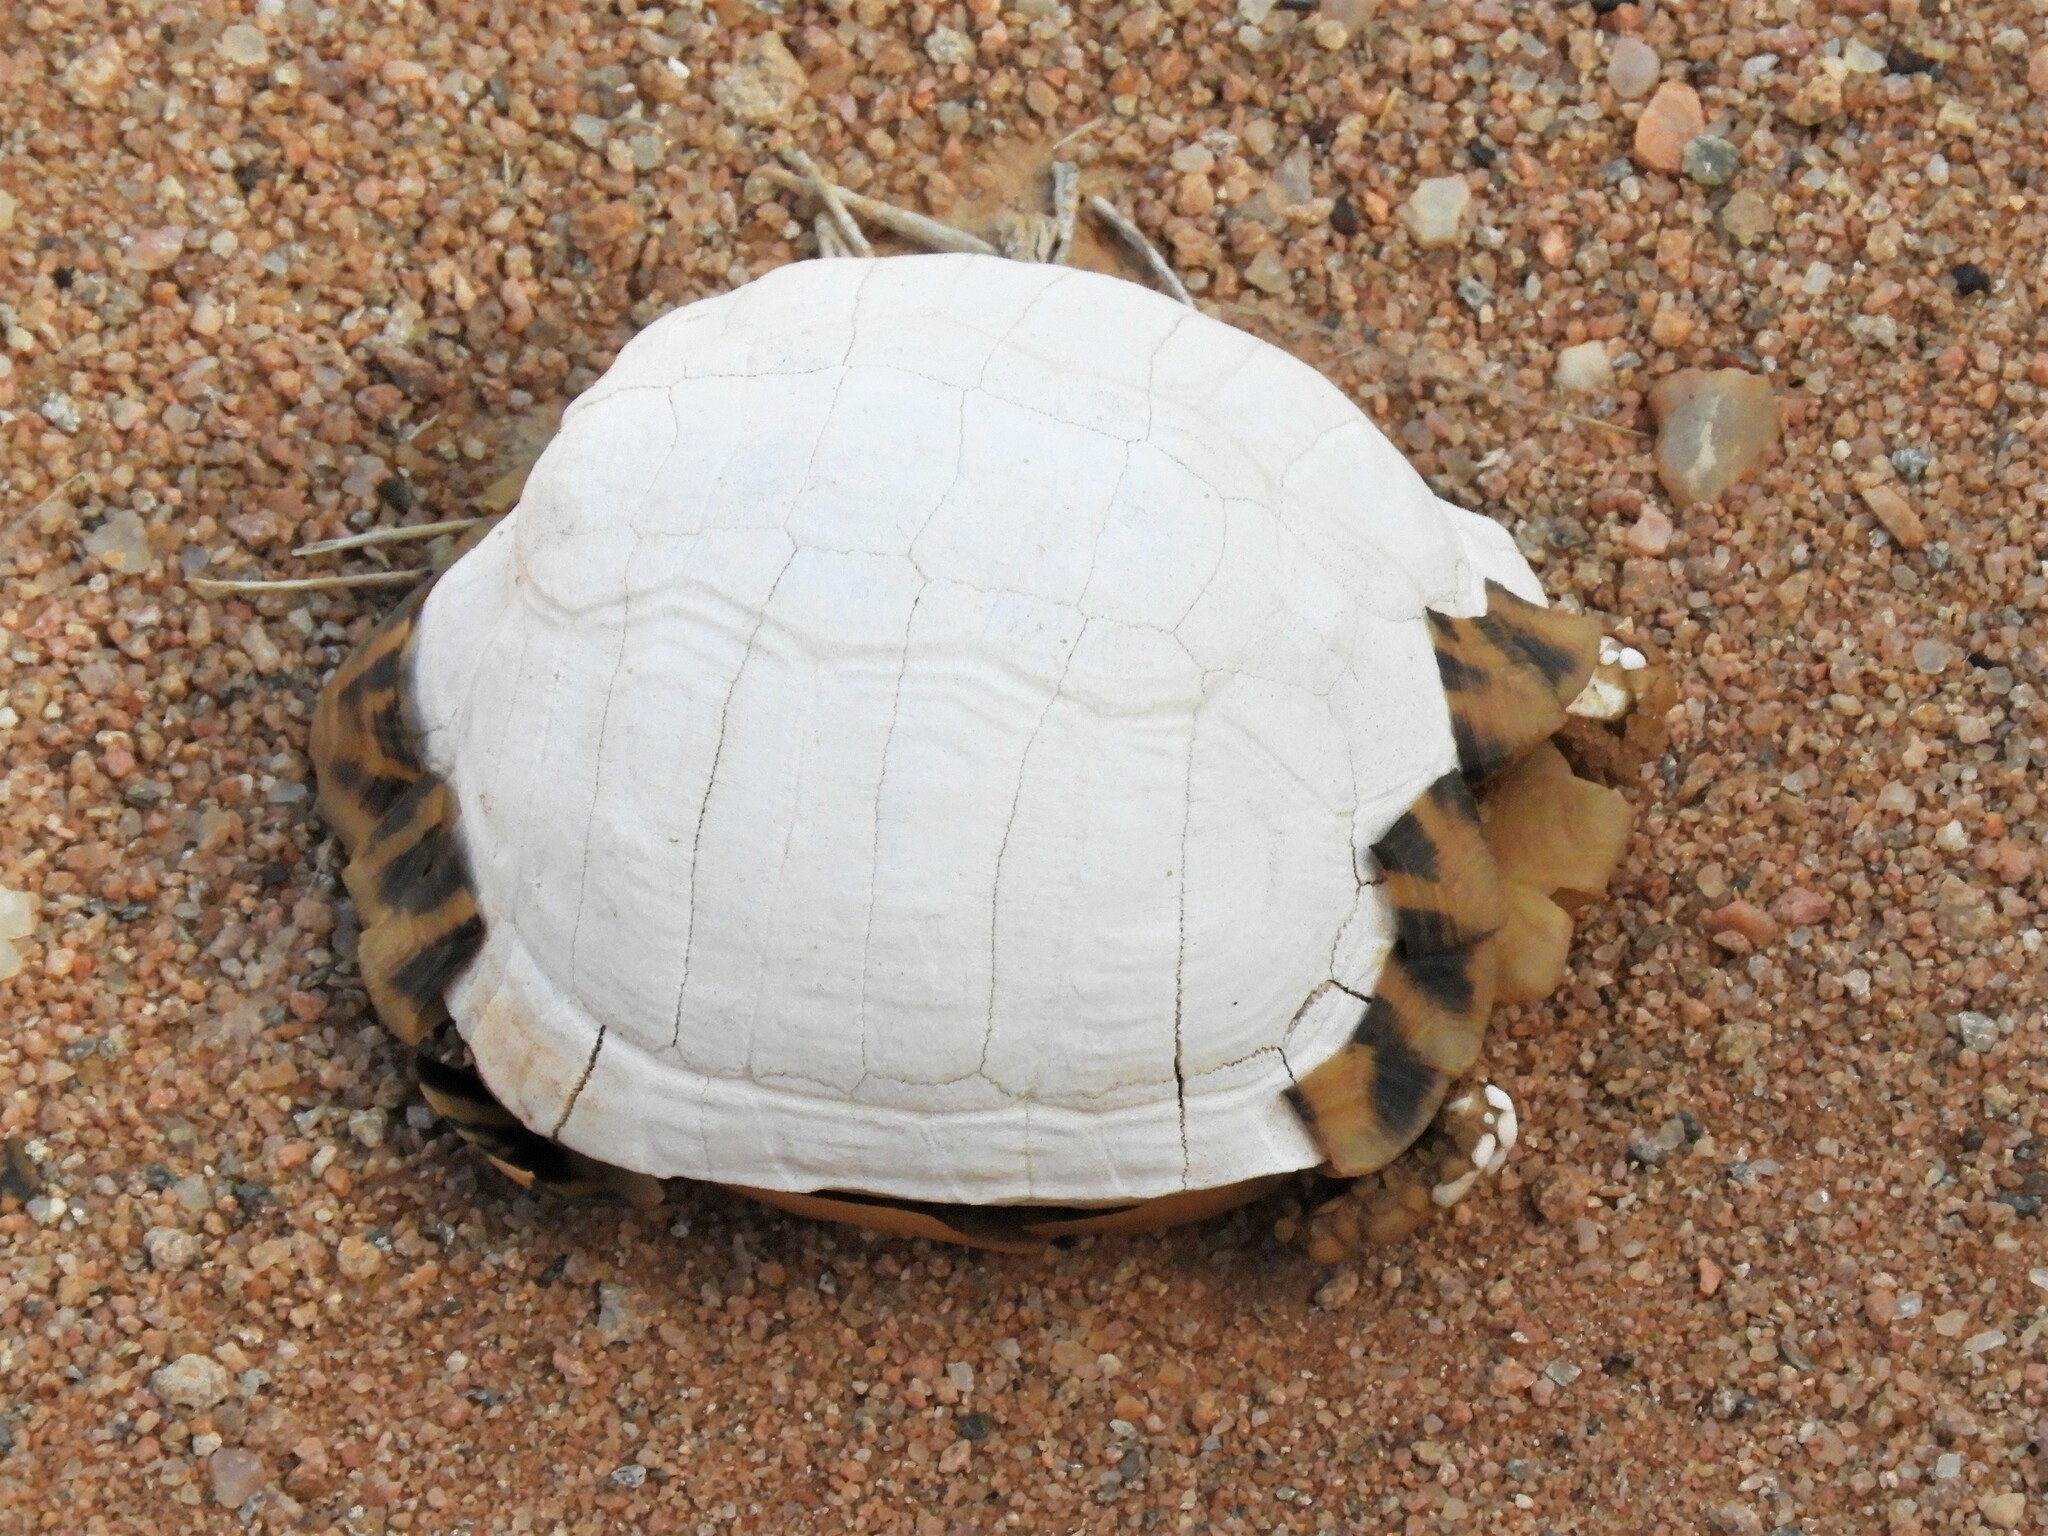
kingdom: Animalia
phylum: Chordata
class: Testudines
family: Testudinidae
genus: Psammobates
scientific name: Psammobates tentorius
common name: Tent tortoise
